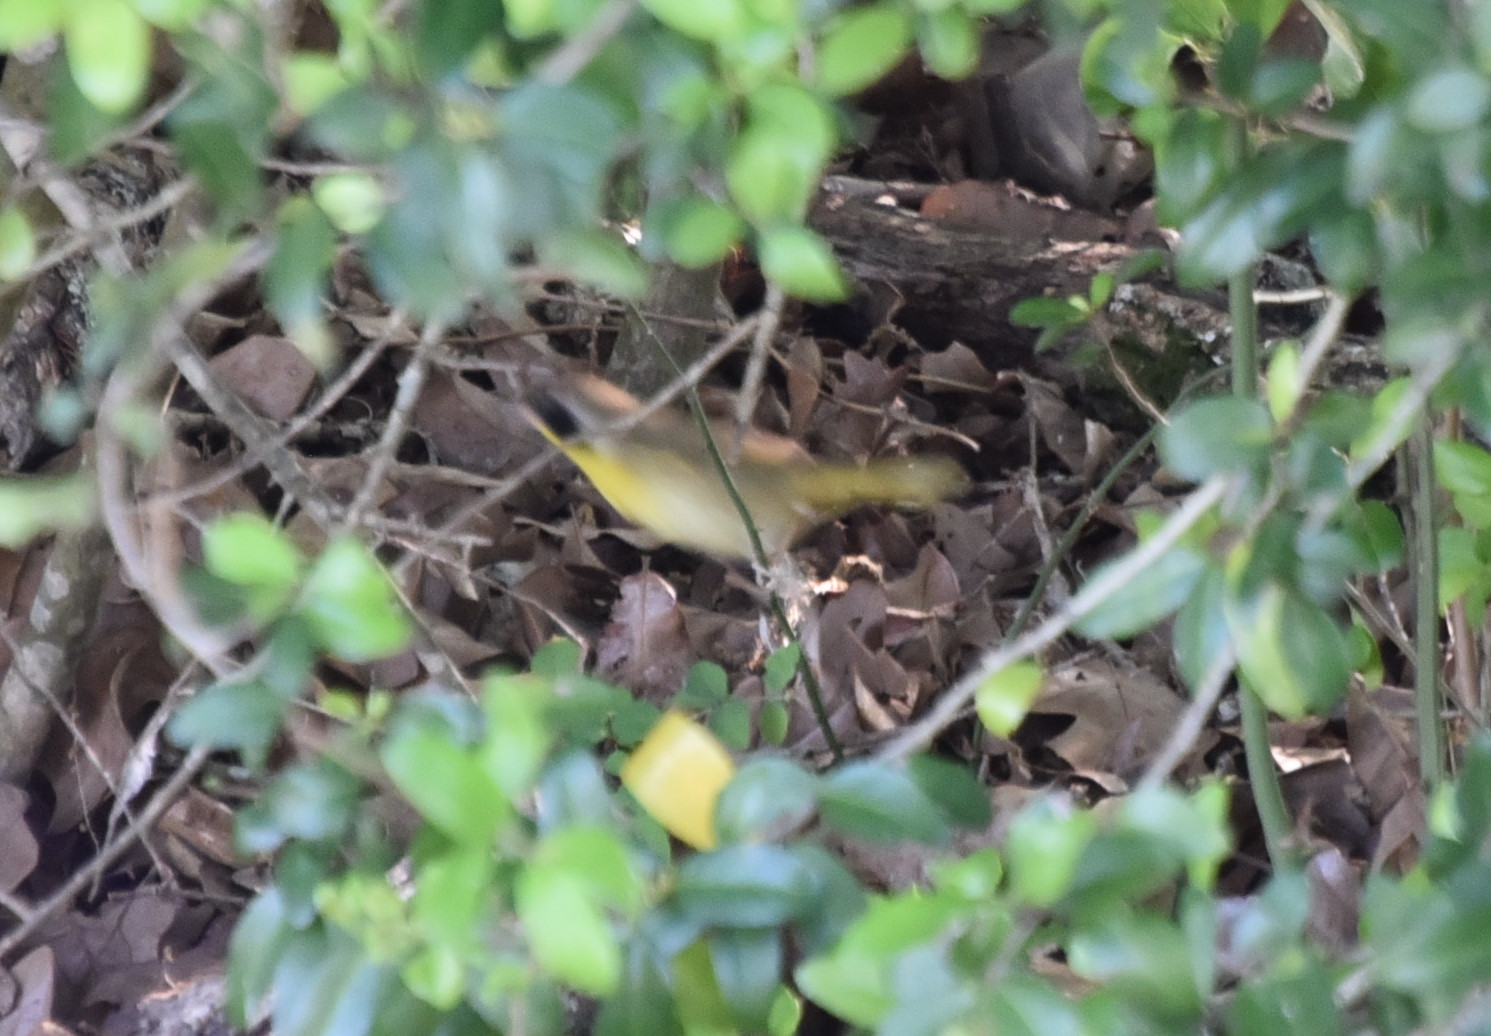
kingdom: Animalia
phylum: Chordata
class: Aves
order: Passeriformes
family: Parulidae
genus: Geothlypis
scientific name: Geothlypis trichas
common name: Common yellowthroat
